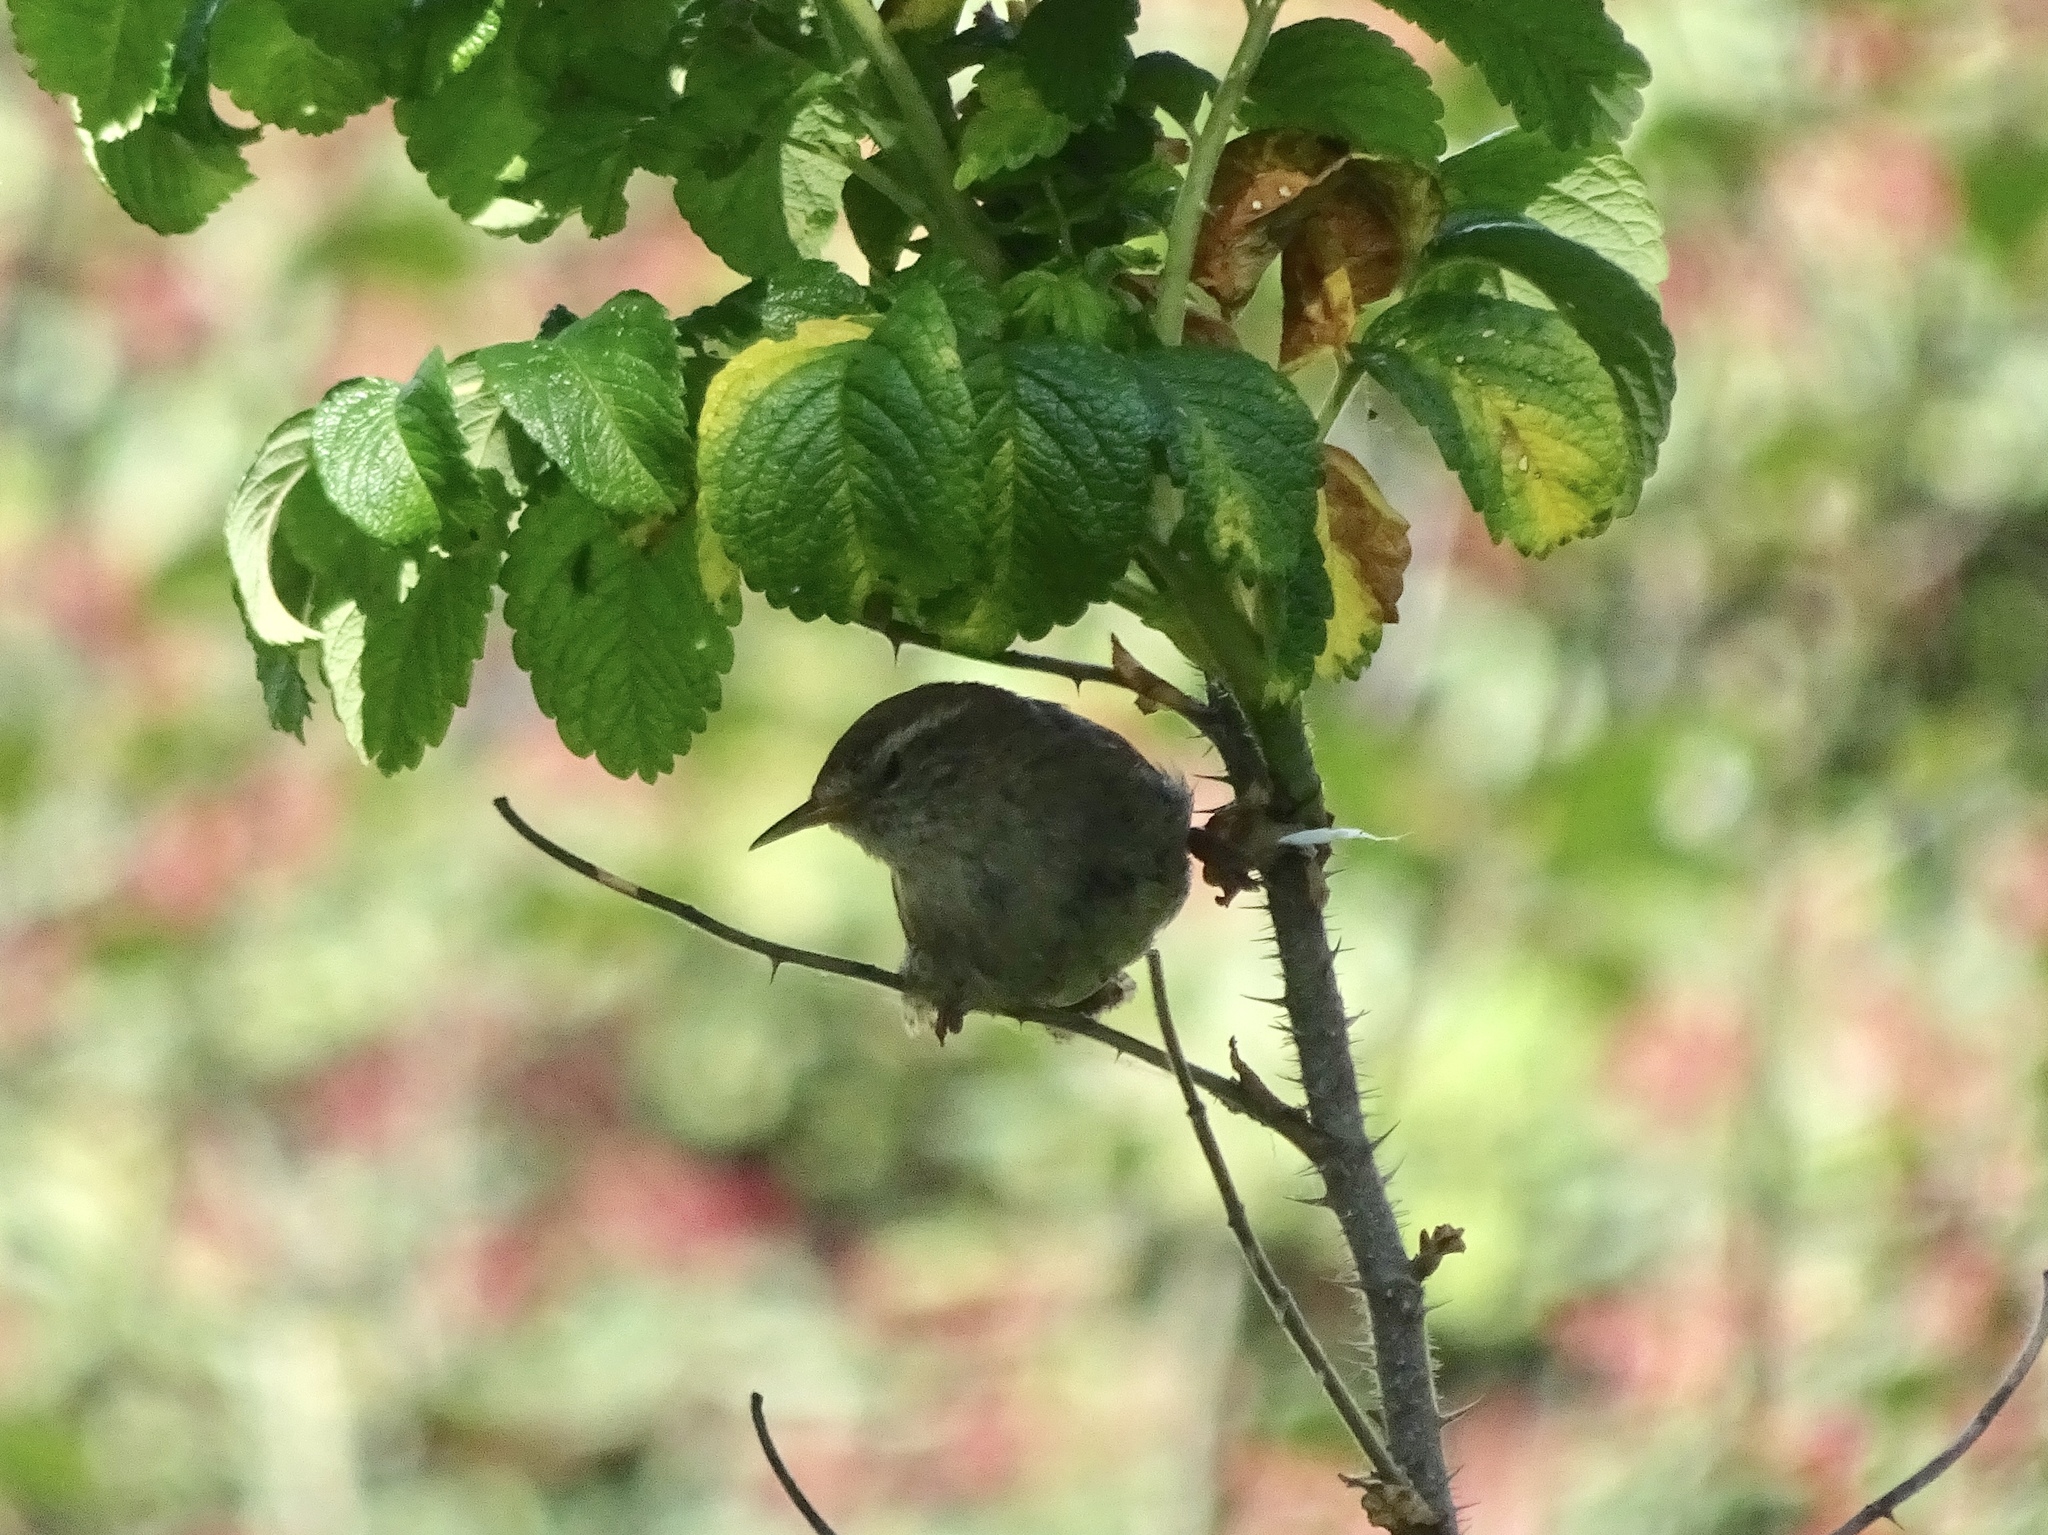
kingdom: Animalia
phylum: Chordata
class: Aves
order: Passeriformes
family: Troglodytidae
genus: Troglodytes
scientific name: Troglodytes troglodytes
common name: Eurasian wren
